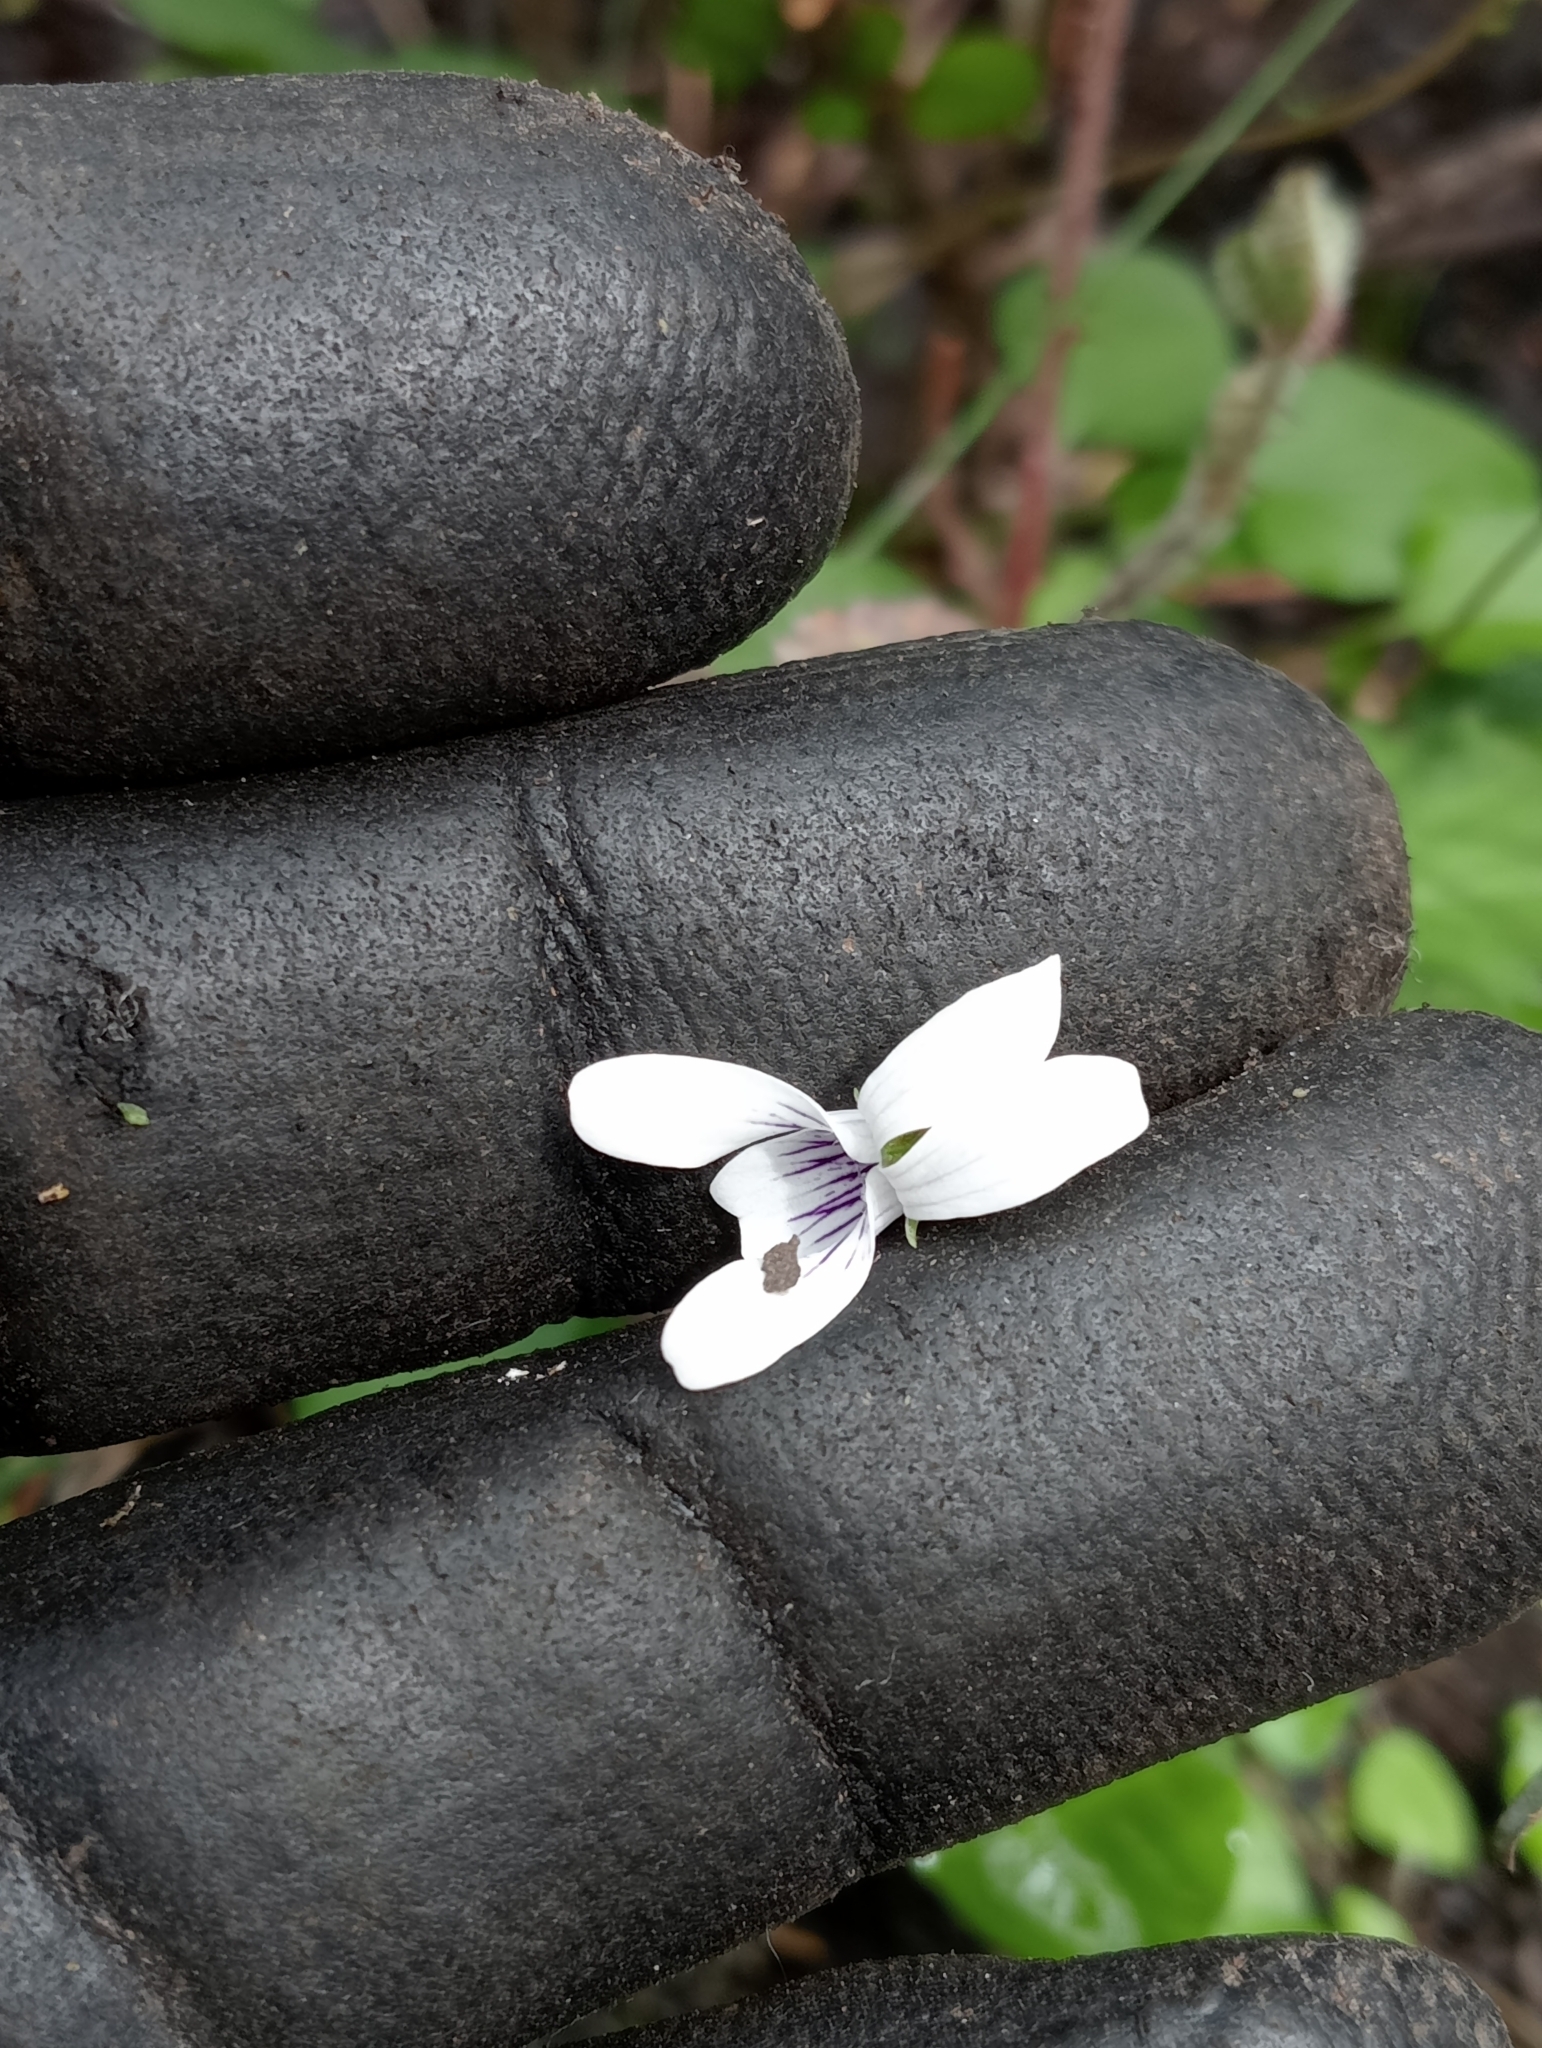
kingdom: Plantae
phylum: Tracheophyta
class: Magnoliopsida
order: Malpighiales
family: Violaceae
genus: Viola
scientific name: Viola cunninghamii
